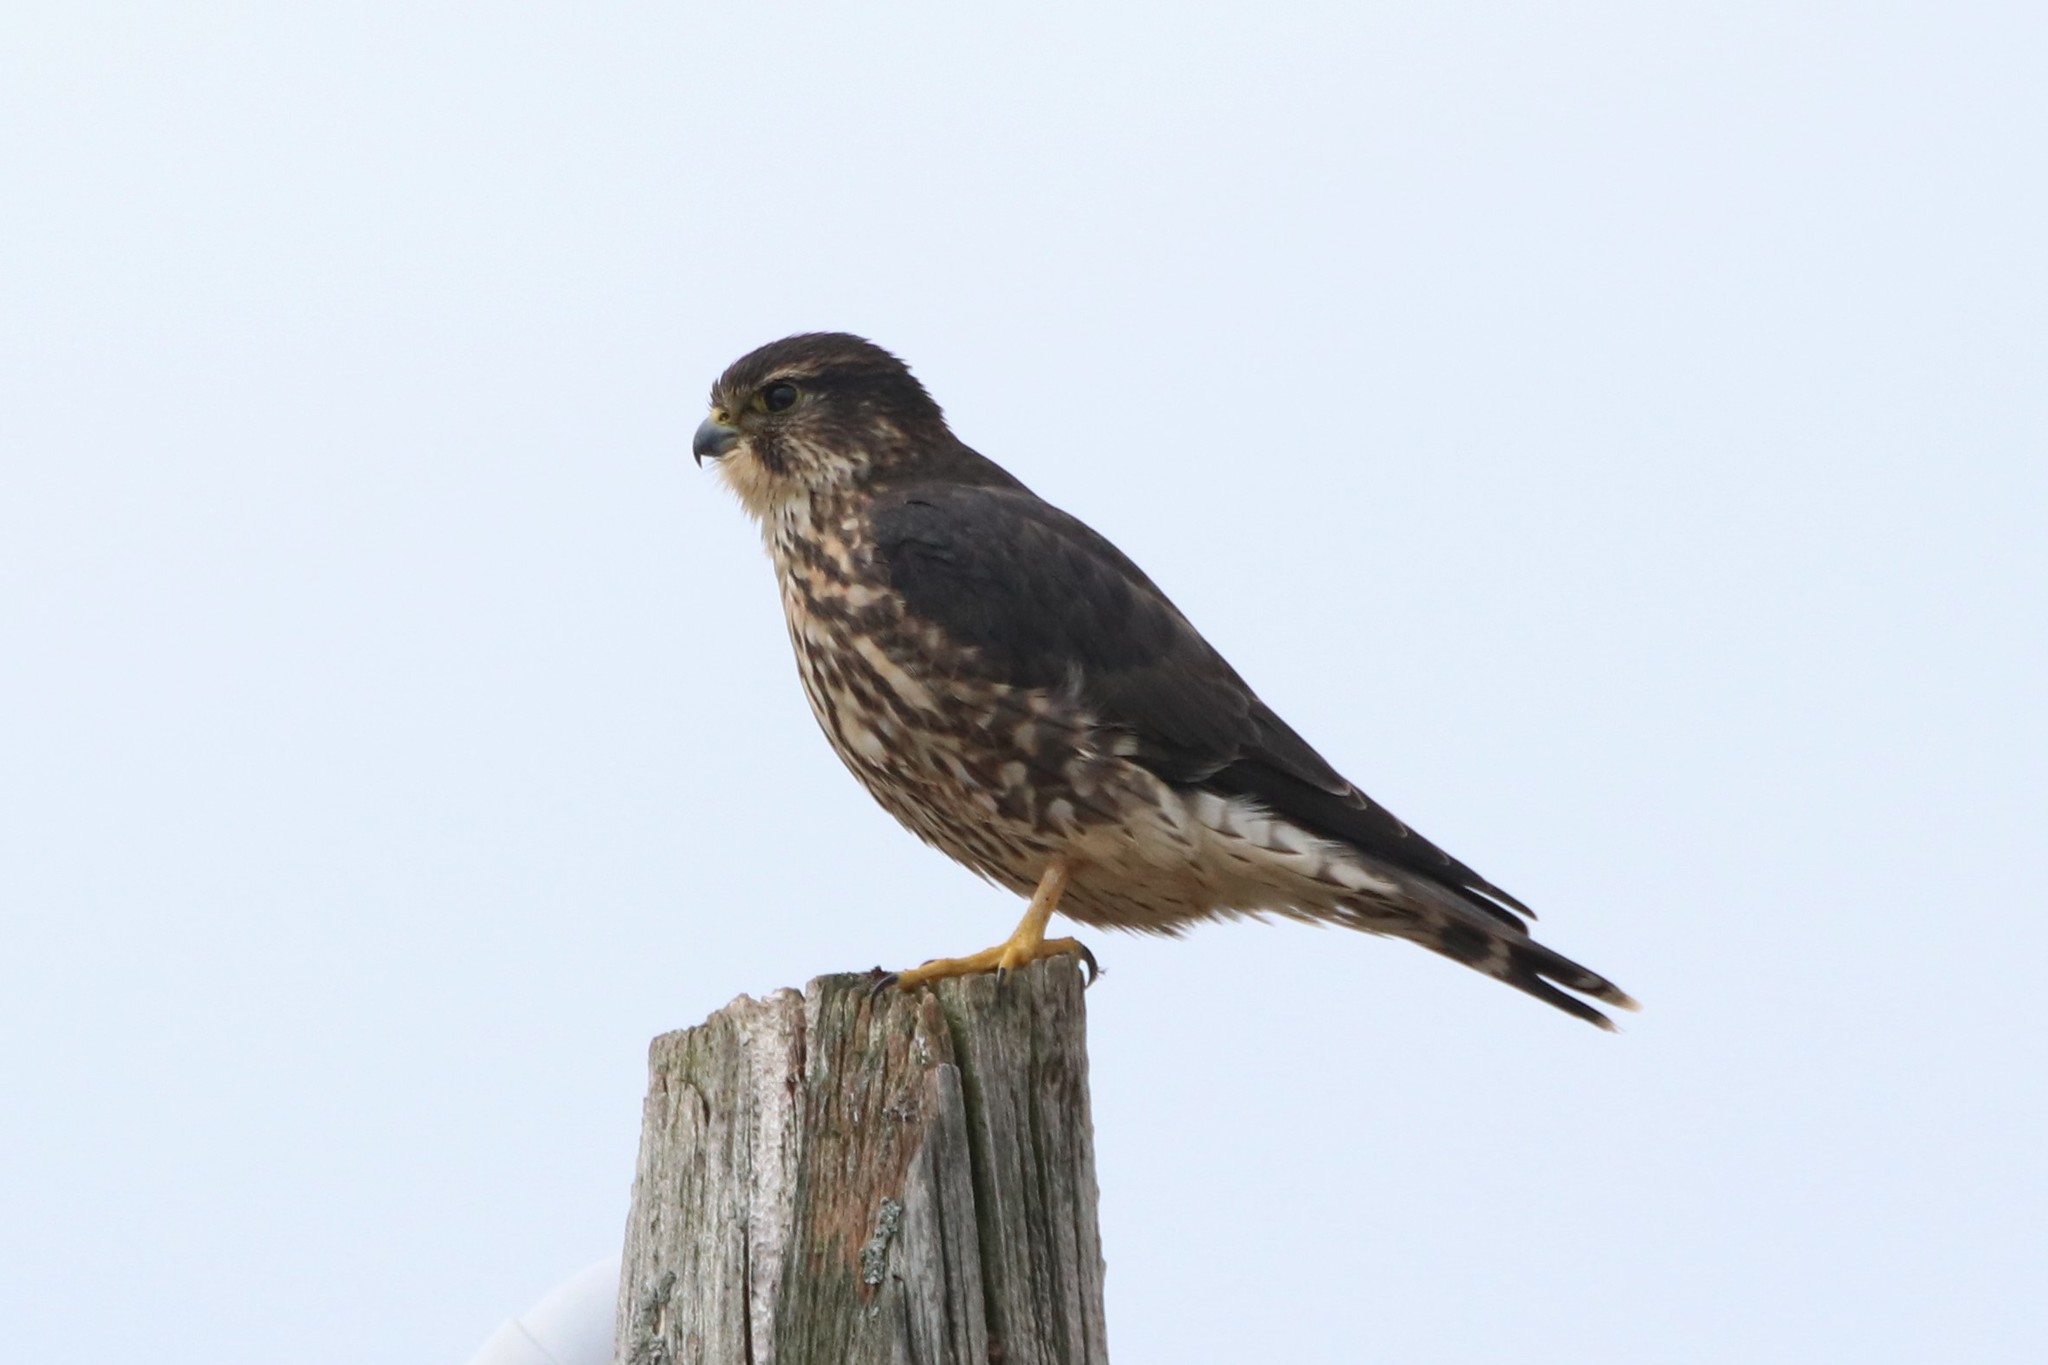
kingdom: Animalia
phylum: Chordata
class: Aves
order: Falconiformes
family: Falconidae
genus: Falco
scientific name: Falco columbarius
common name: Merlin
